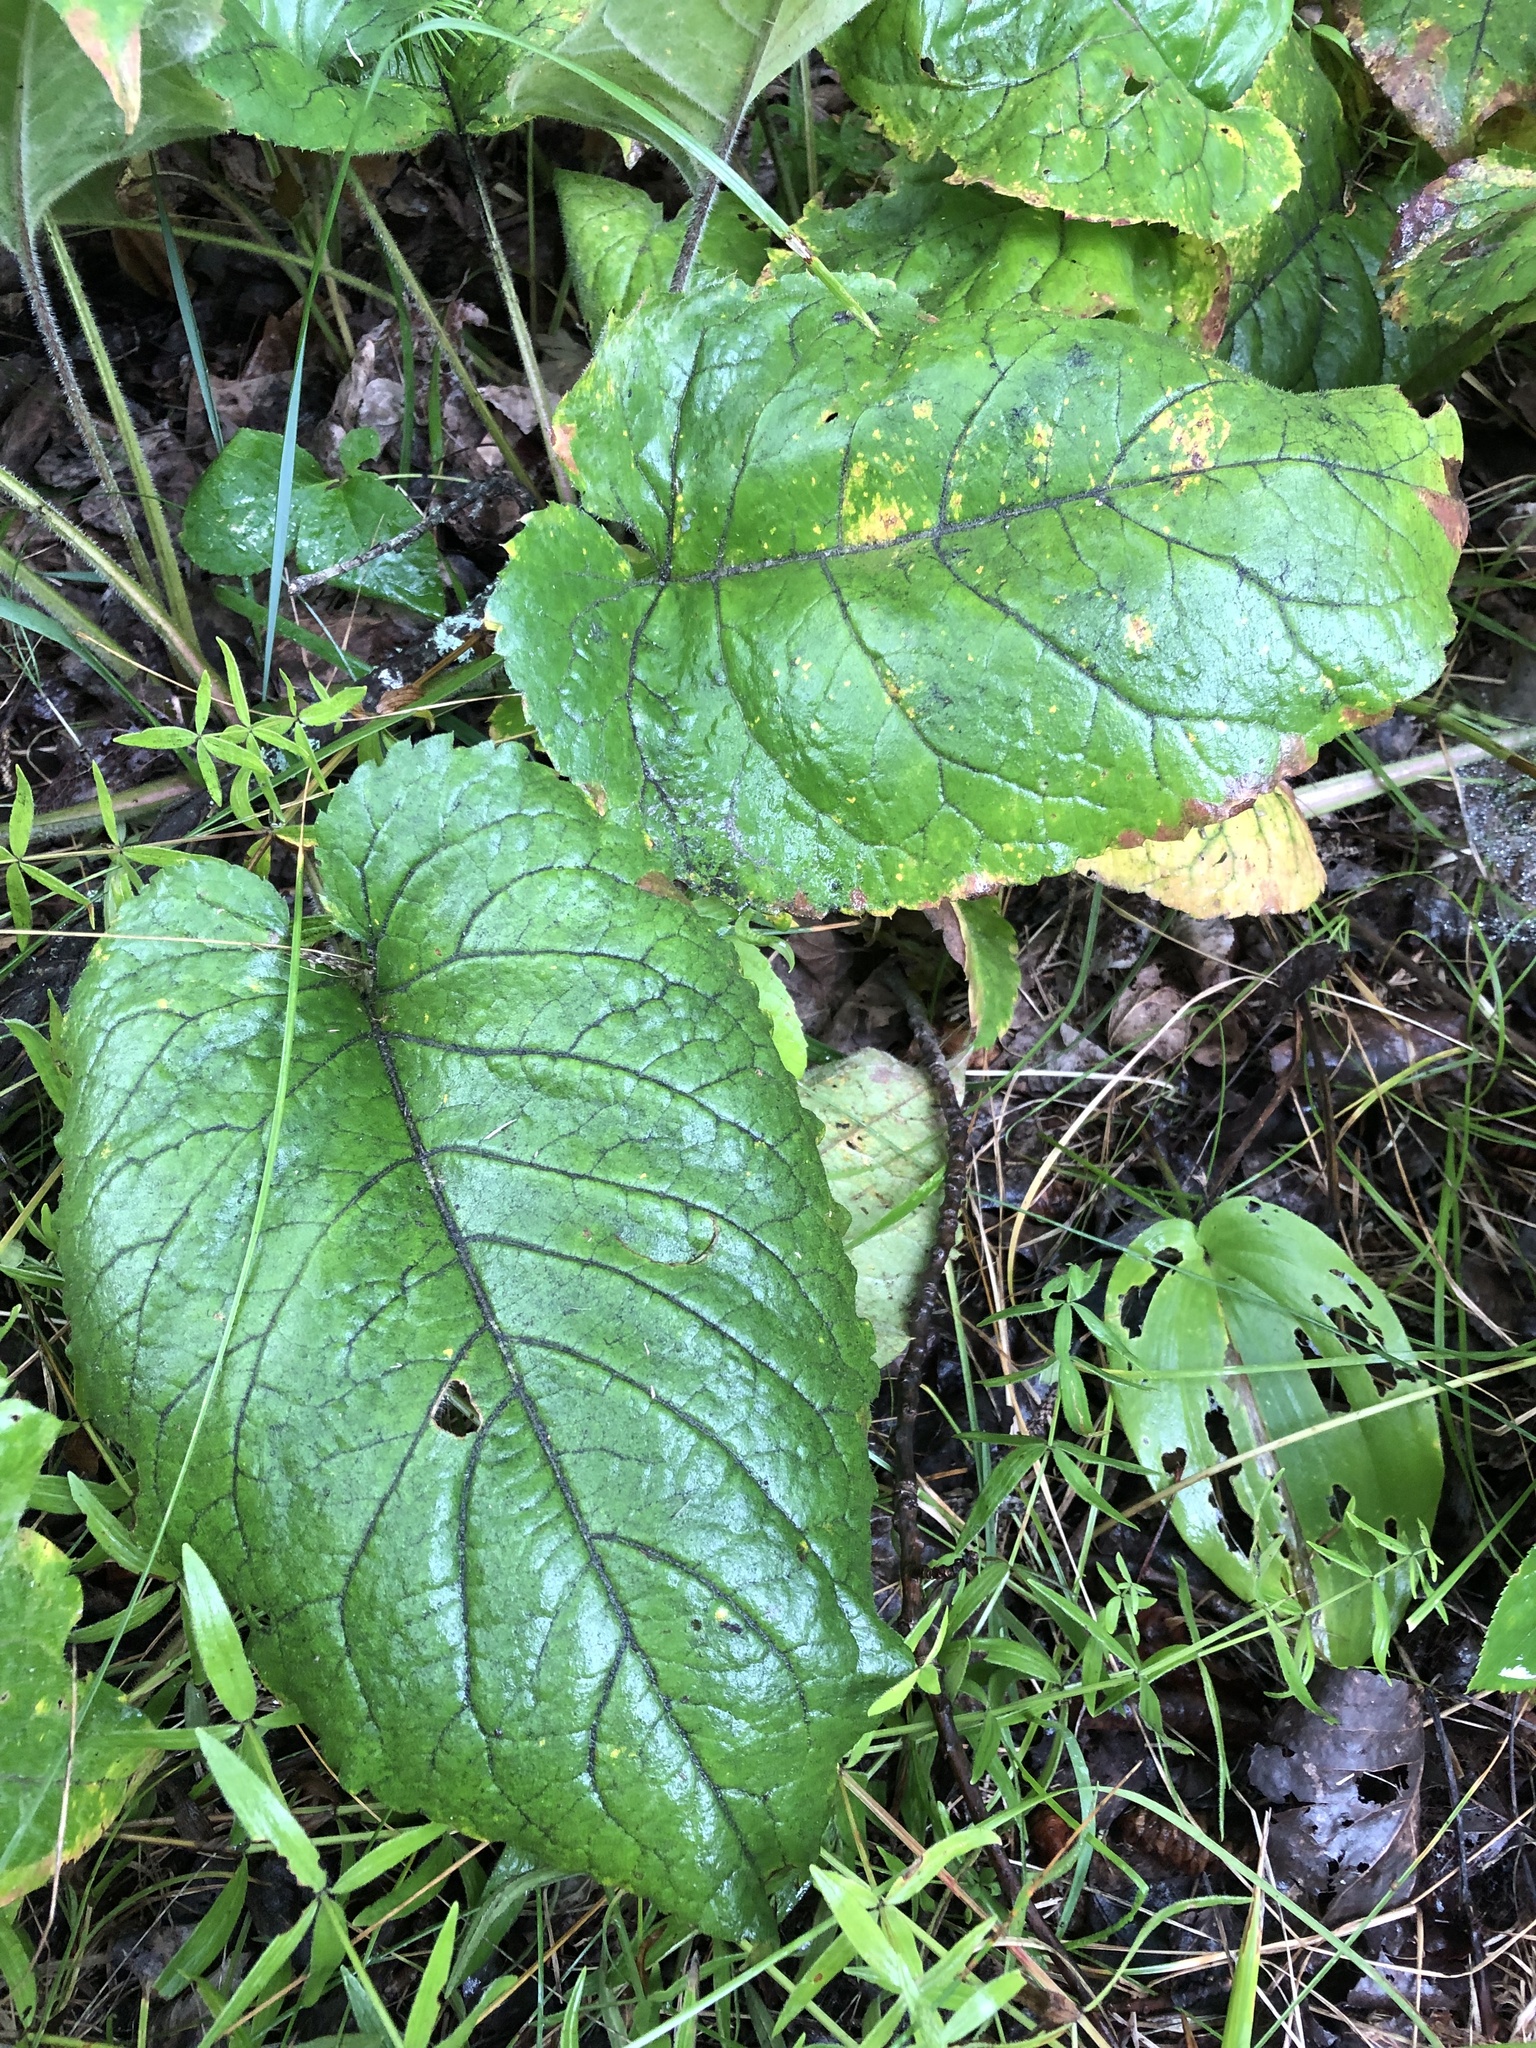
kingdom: Plantae
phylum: Tracheophyta
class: Magnoliopsida
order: Asterales
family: Asteraceae
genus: Eurybia
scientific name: Eurybia macrophylla
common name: Big-leaved aster
